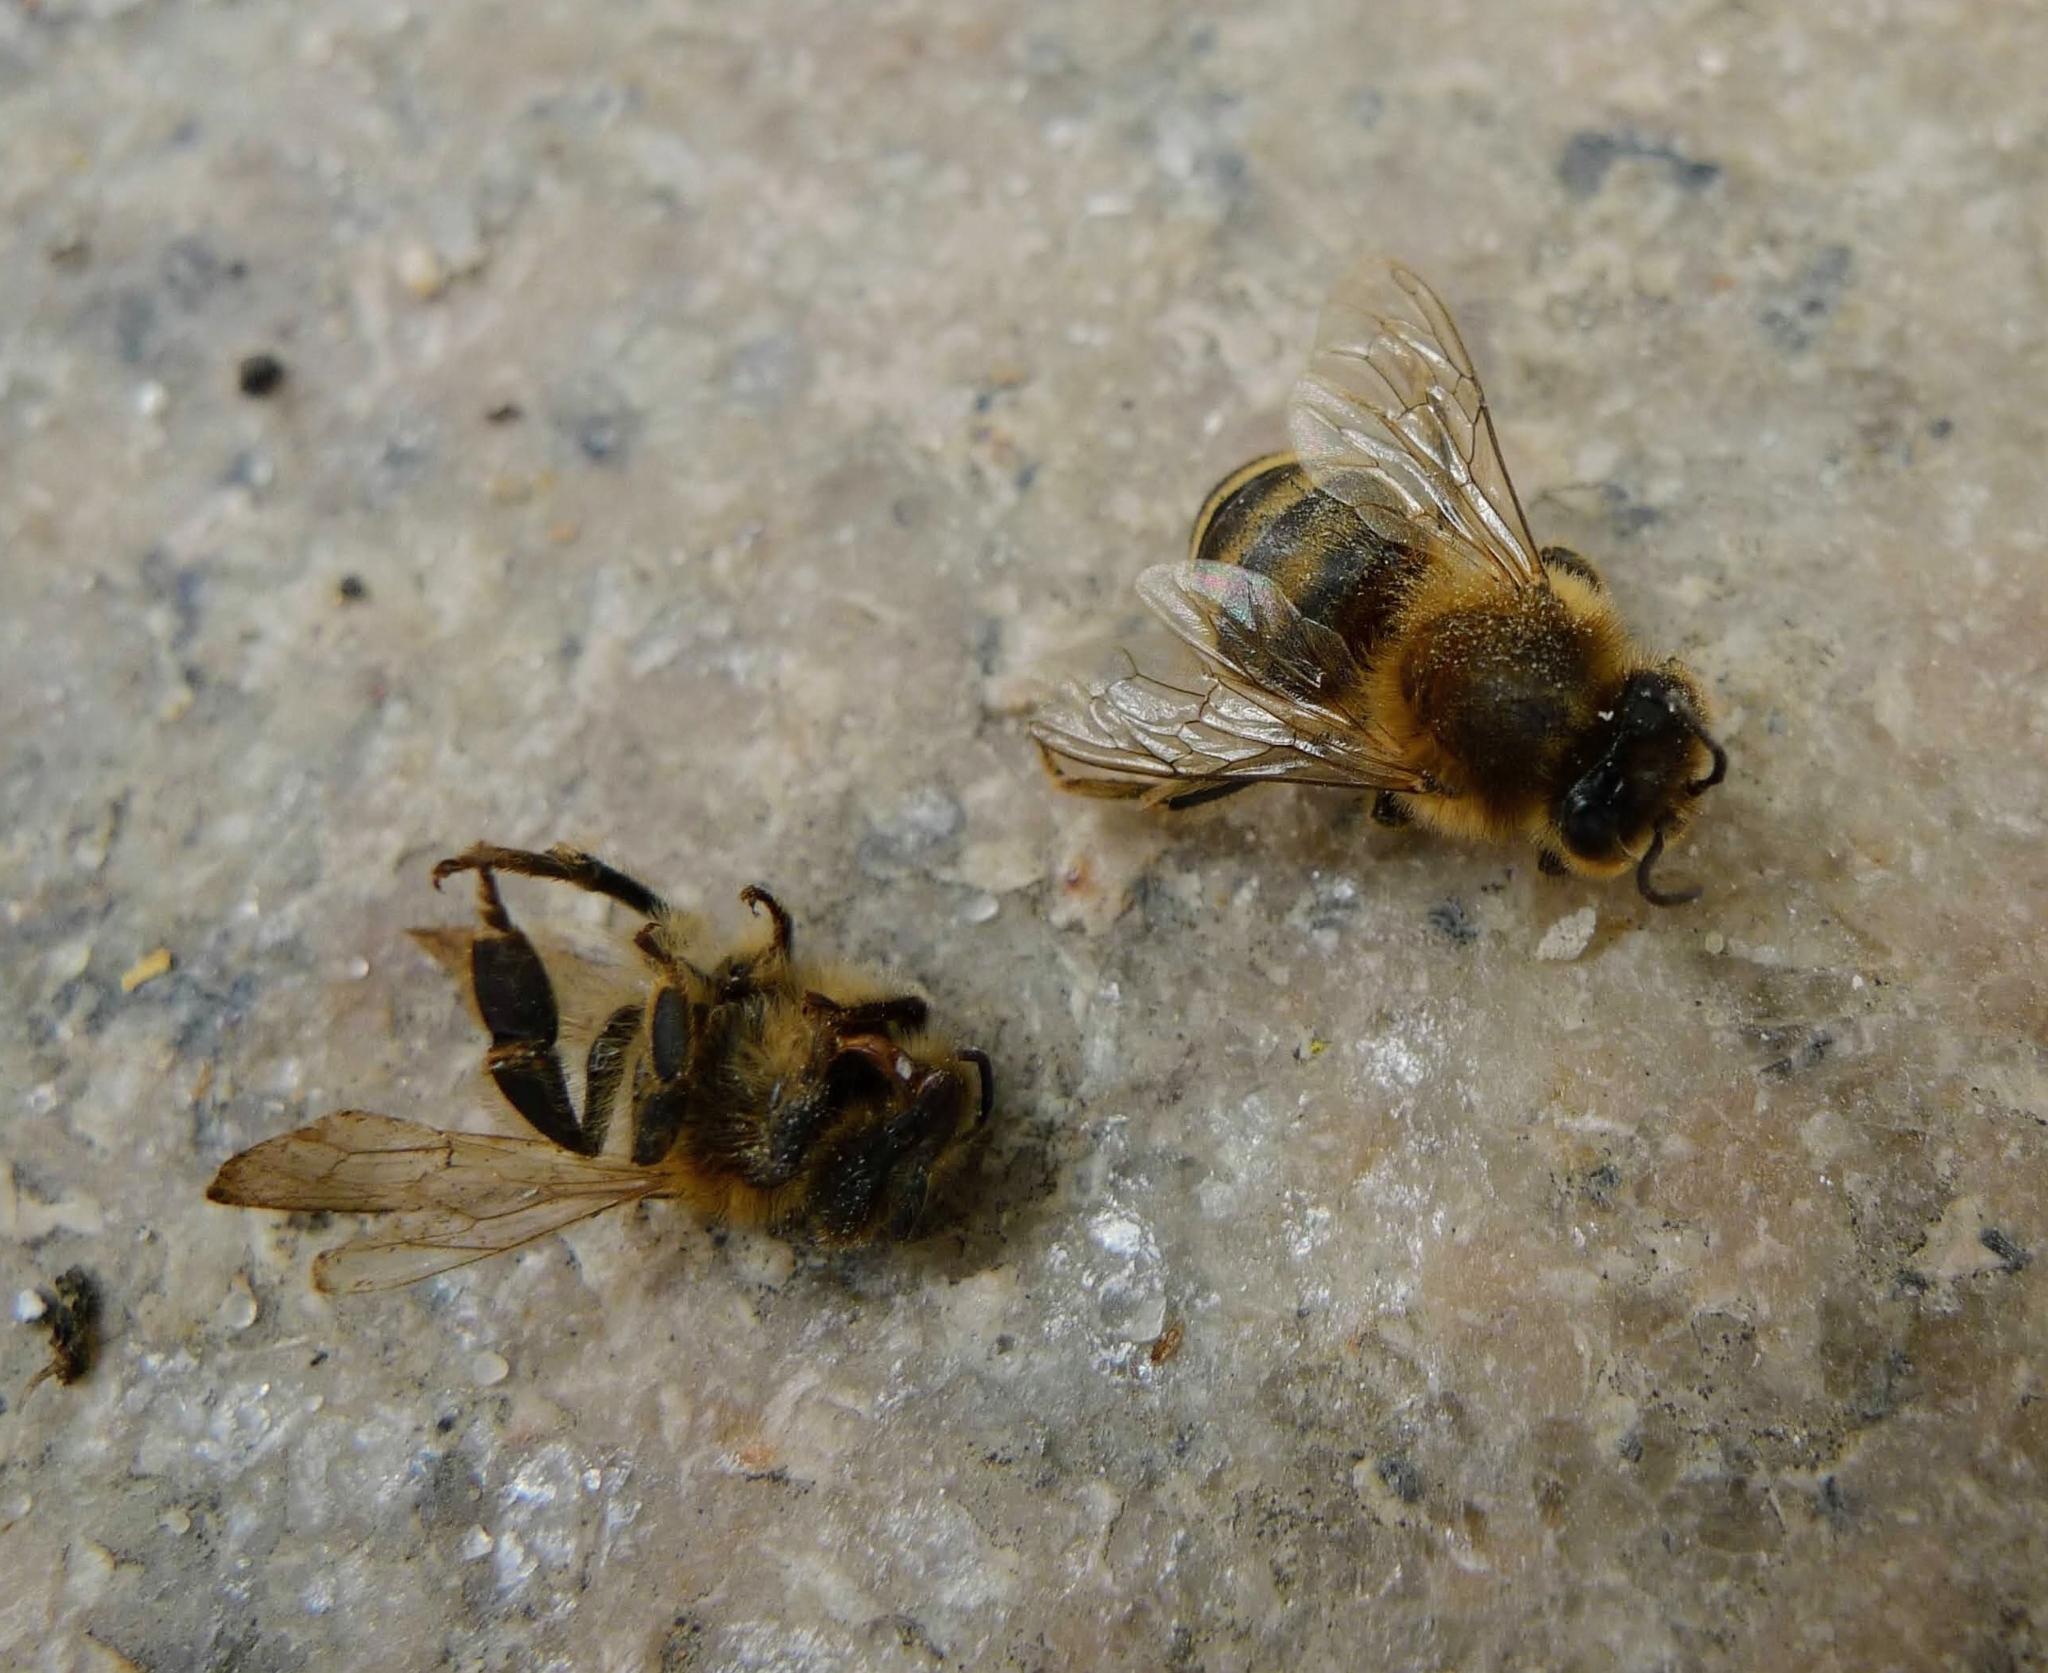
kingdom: Animalia
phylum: Arthropoda
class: Insecta
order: Hymenoptera
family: Apidae
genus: Apis
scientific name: Apis mellifera
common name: Honey bee
